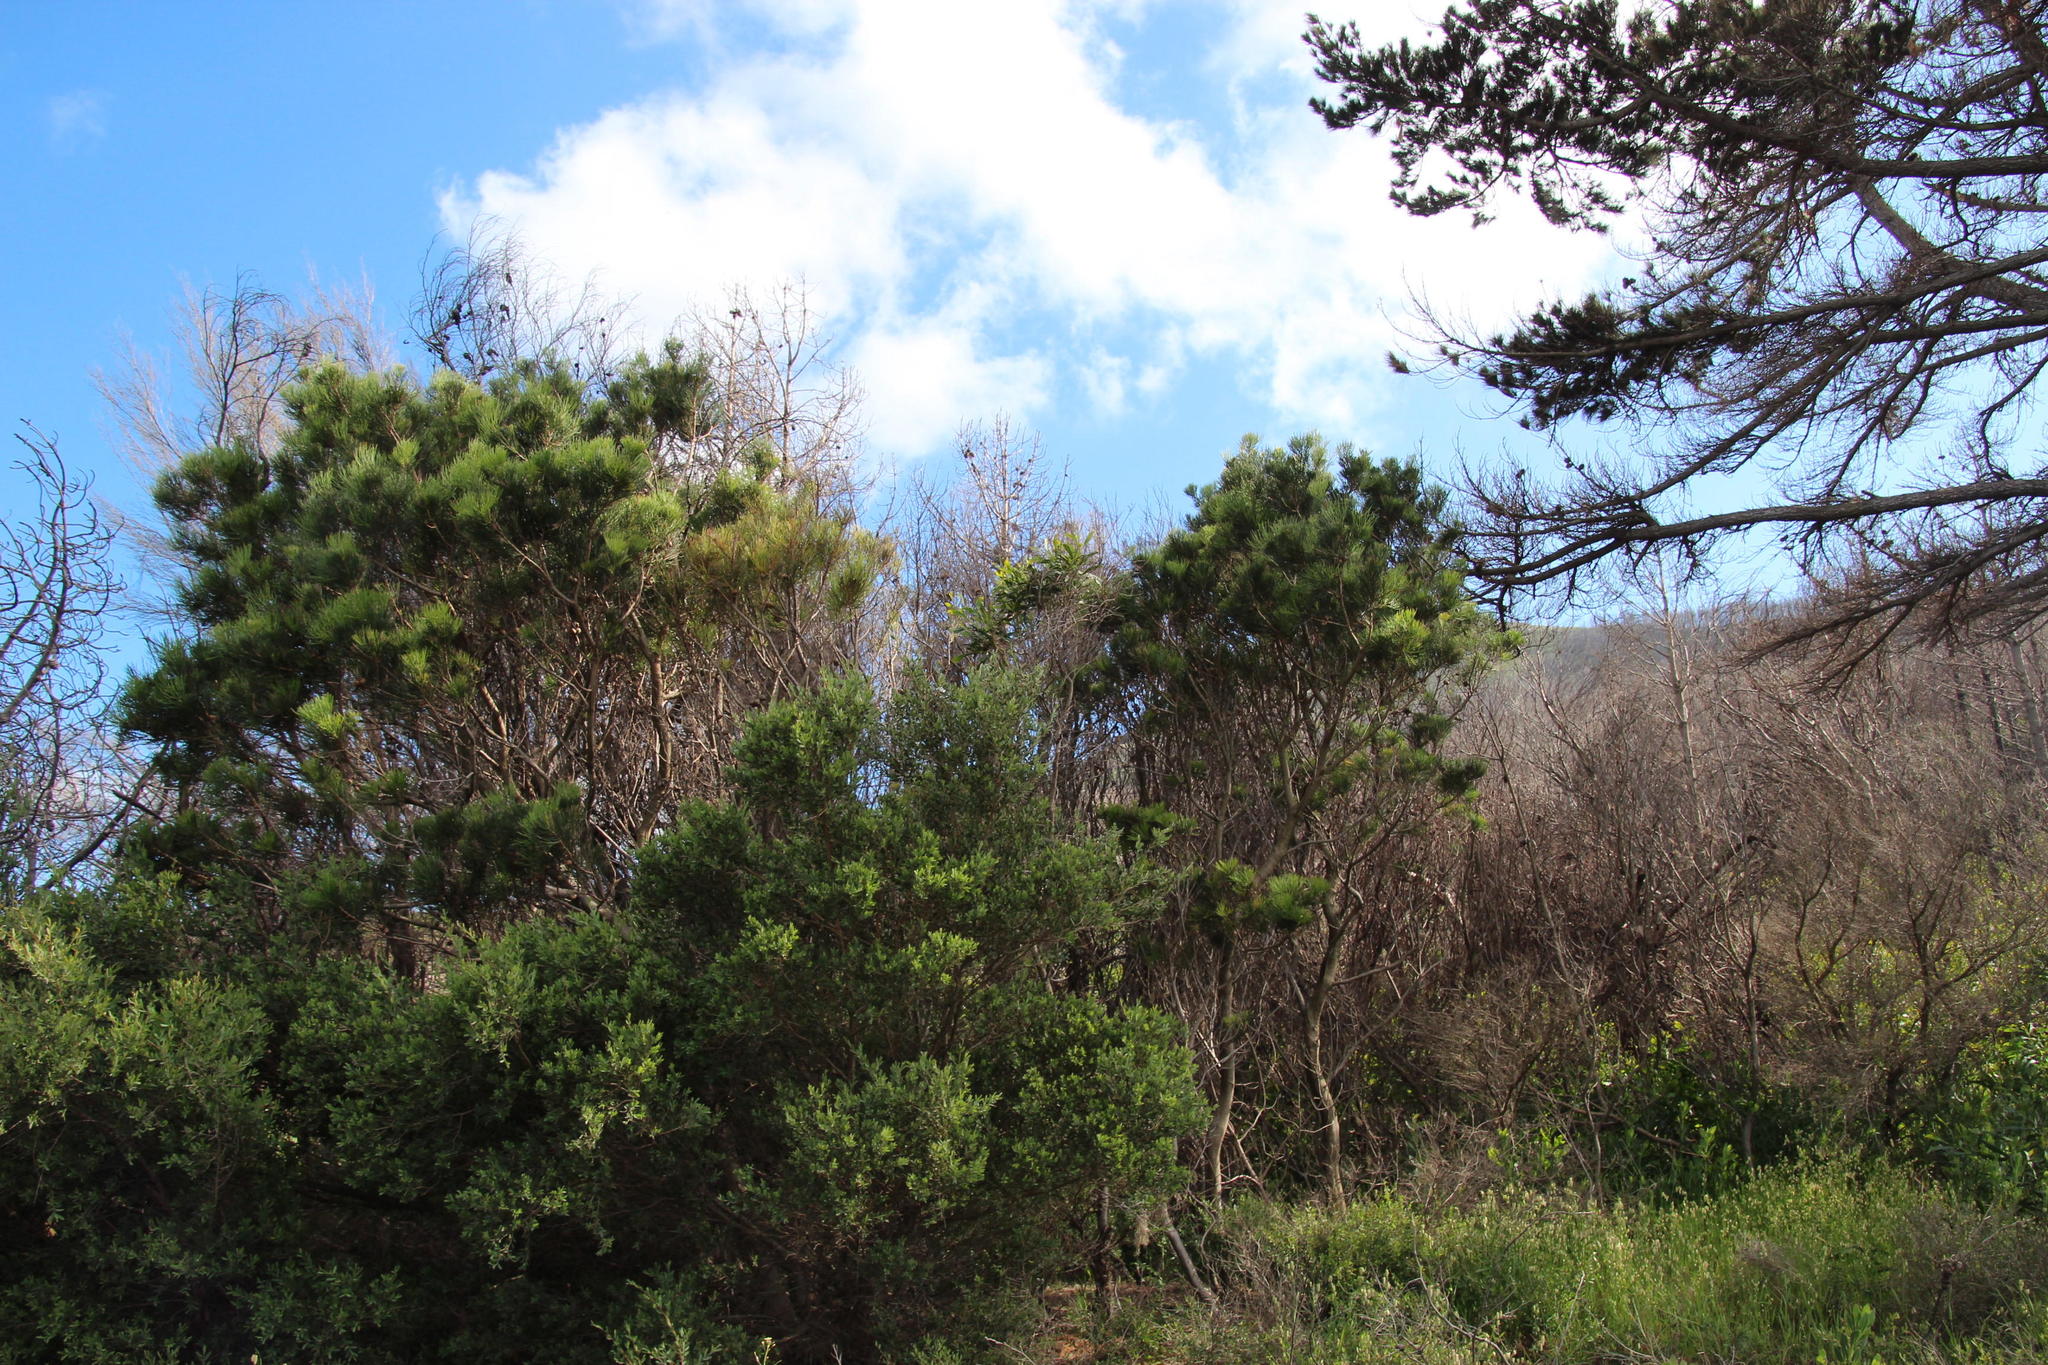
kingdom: Plantae
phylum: Tracheophyta
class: Magnoliopsida
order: Proteales
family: Proteaceae
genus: Hakea
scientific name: Hakea drupacea
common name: Sweet hakea
